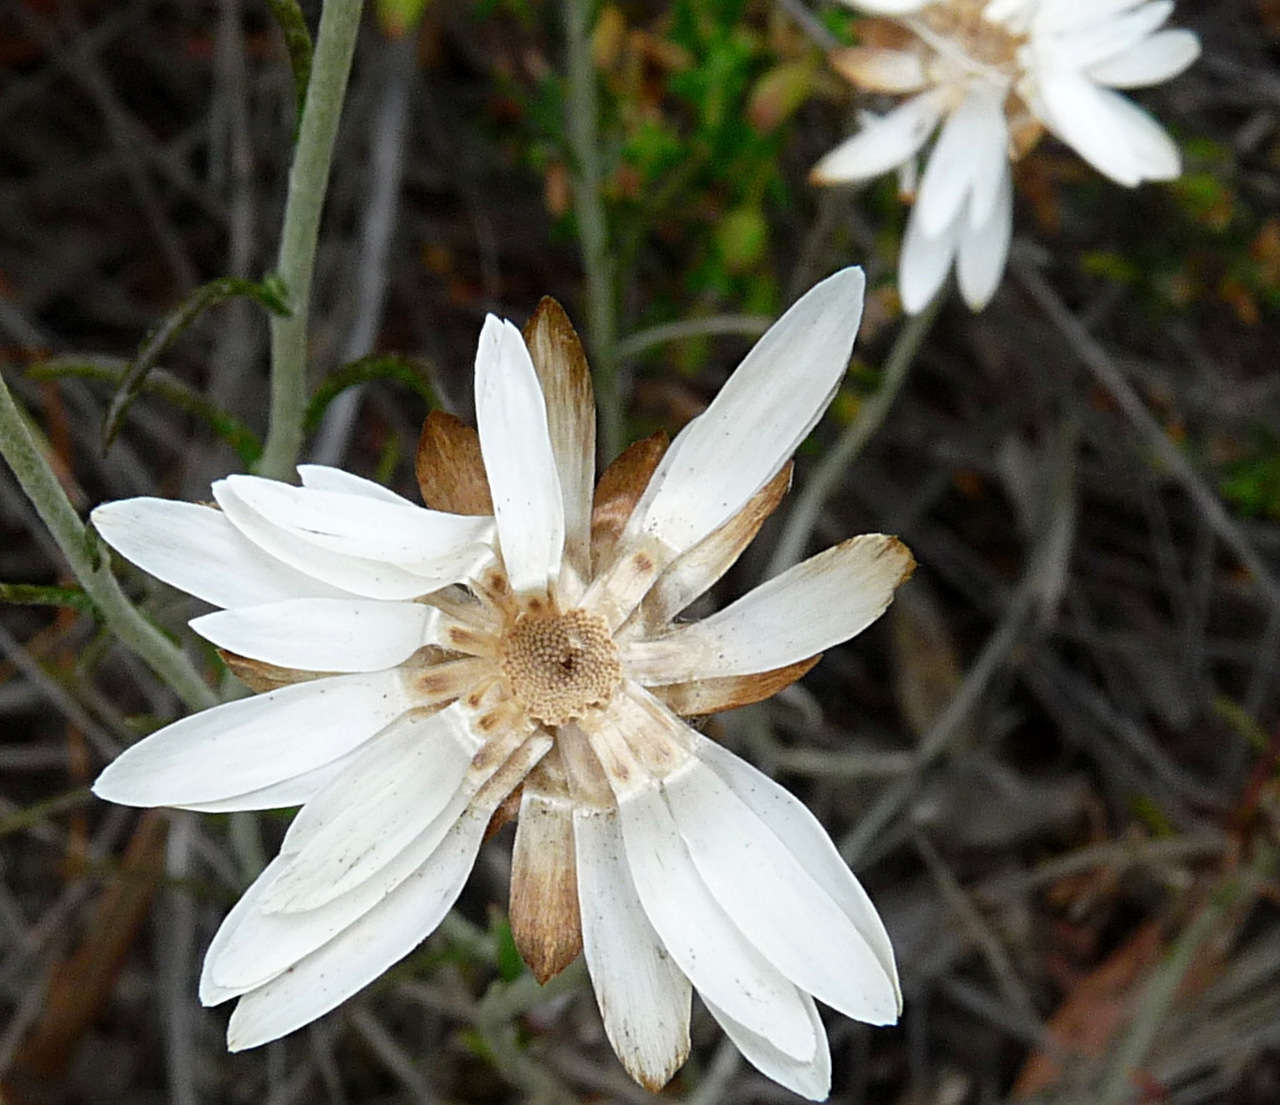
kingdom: Plantae
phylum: Tracheophyta
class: Magnoliopsida
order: Asterales
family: Asteraceae
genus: Argentipallium
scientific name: Argentipallium obtusifolium
